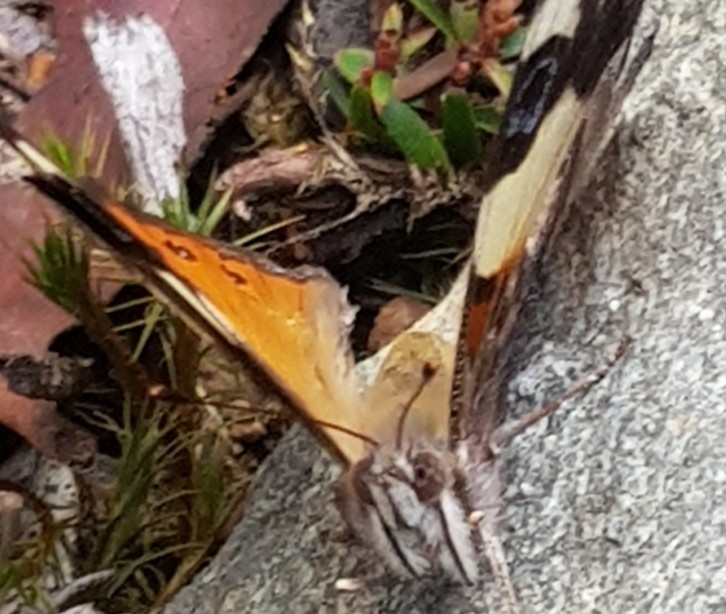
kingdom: Animalia
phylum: Arthropoda
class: Insecta
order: Lepidoptera
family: Nymphalidae
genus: Vanessa
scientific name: Vanessa itea
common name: Yellow admiral
